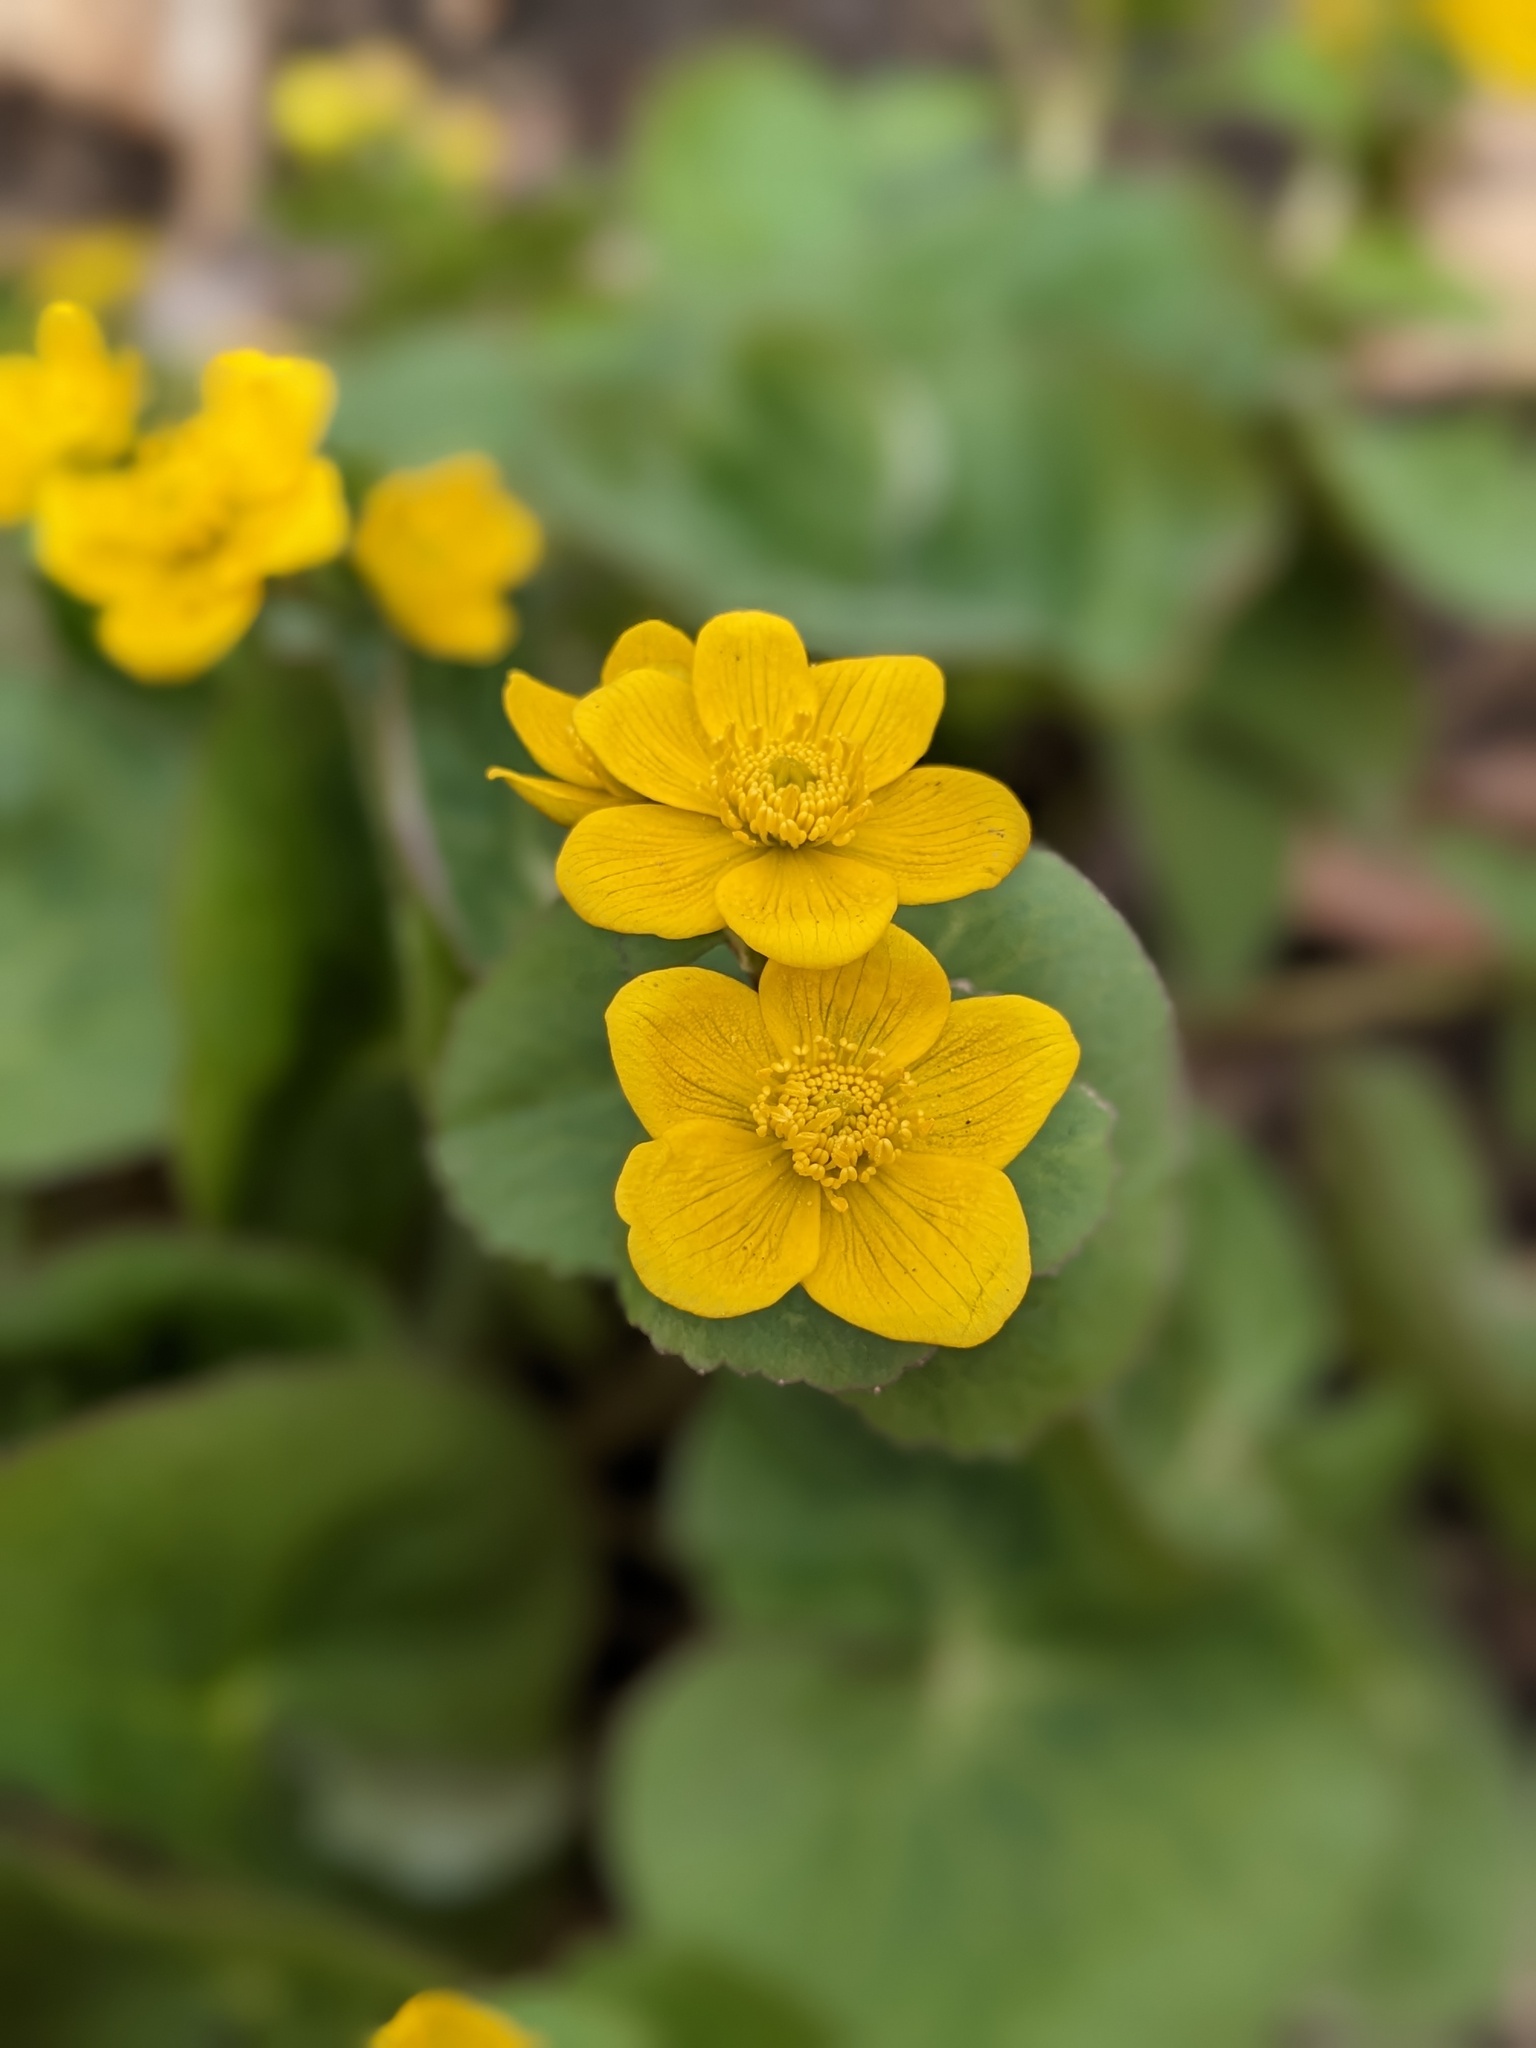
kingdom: Plantae
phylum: Tracheophyta
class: Magnoliopsida
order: Ranunculales
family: Ranunculaceae
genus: Caltha
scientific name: Caltha palustris
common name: Marsh marigold
